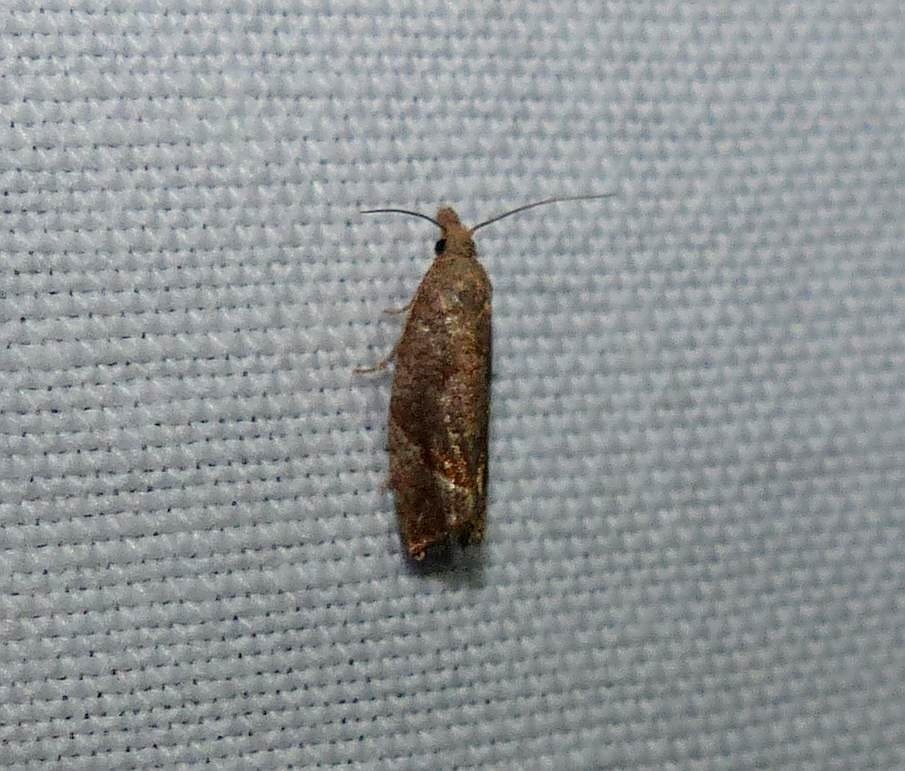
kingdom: Animalia
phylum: Arthropoda
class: Insecta
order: Lepidoptera
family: Tortricidae
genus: Pelochrista
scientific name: Pelochrista derelicta
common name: Derelict pelochrista moth
